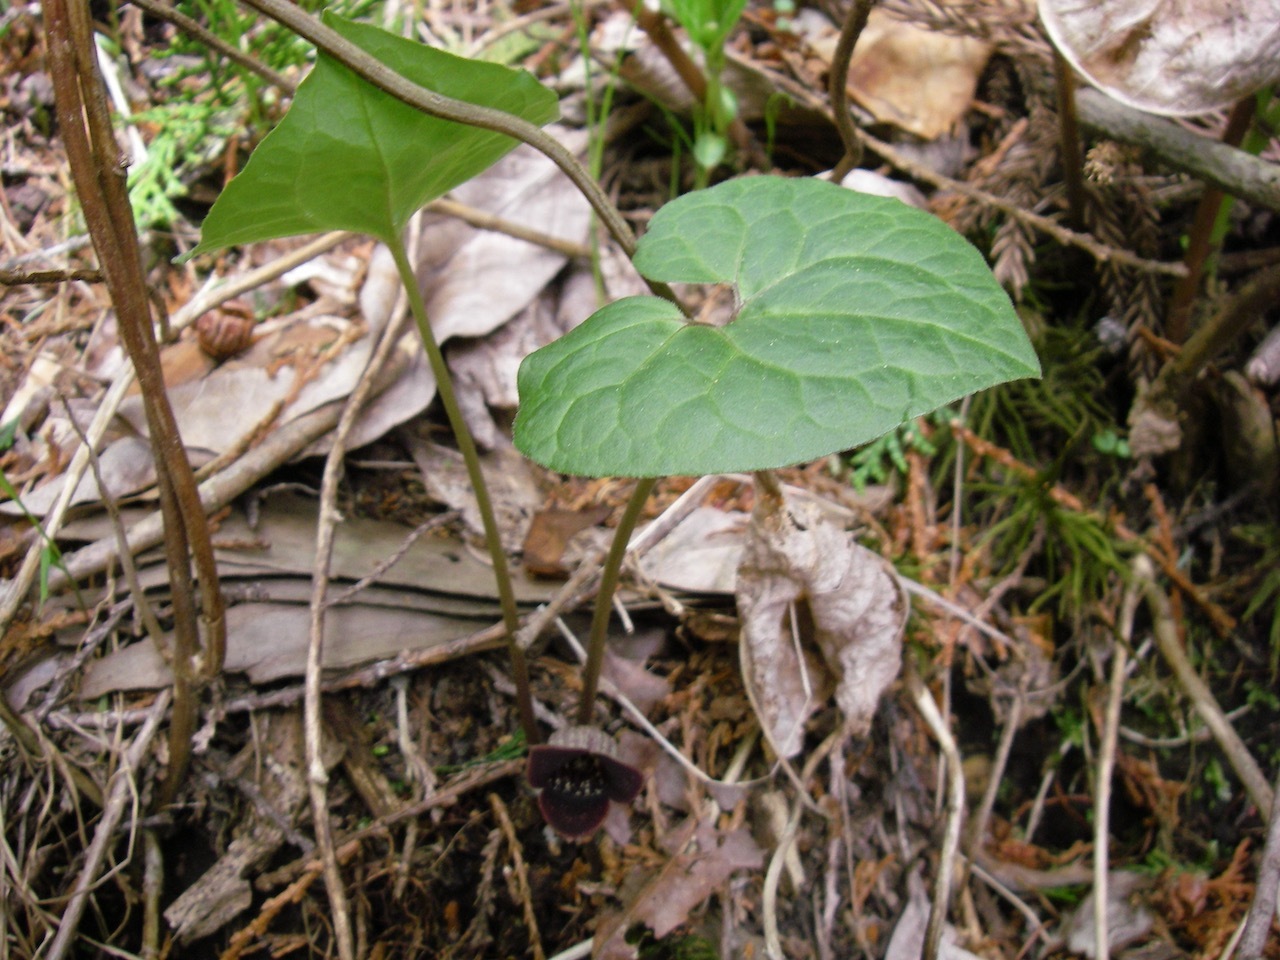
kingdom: Plantae
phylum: Tracheophyta
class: Magnoliopsida
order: Piperales
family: Aristolochiaceae
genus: Asarum
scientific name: Asarum sieboldii
